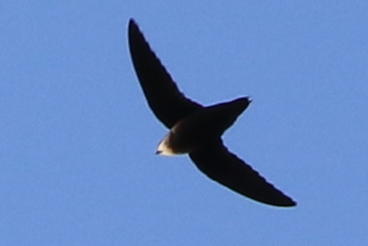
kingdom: Animalia
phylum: Chordata
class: Aves
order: Apodiformes
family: Apodidae
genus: Chaetura
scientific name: Chaetura pelagica
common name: Chimney swift
